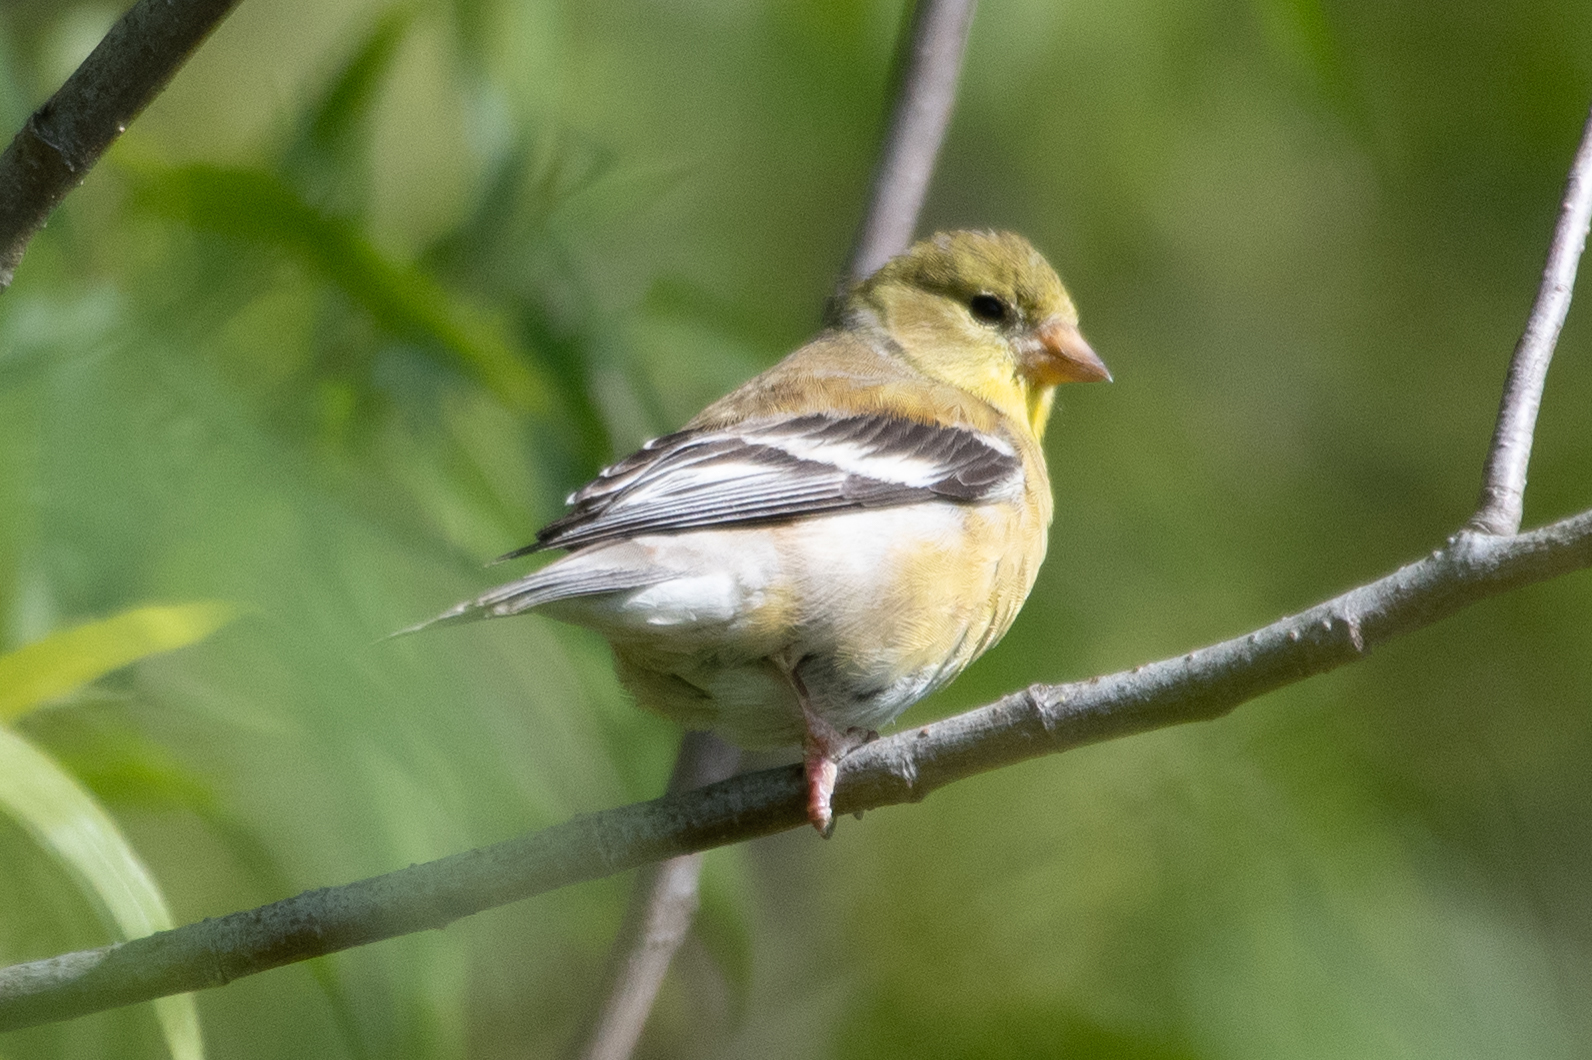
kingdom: Animalia
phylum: Chordata
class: Aves
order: Passeriformes
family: Fringillidae
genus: Spinus
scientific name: Spinus tristis
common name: American goldfinch
